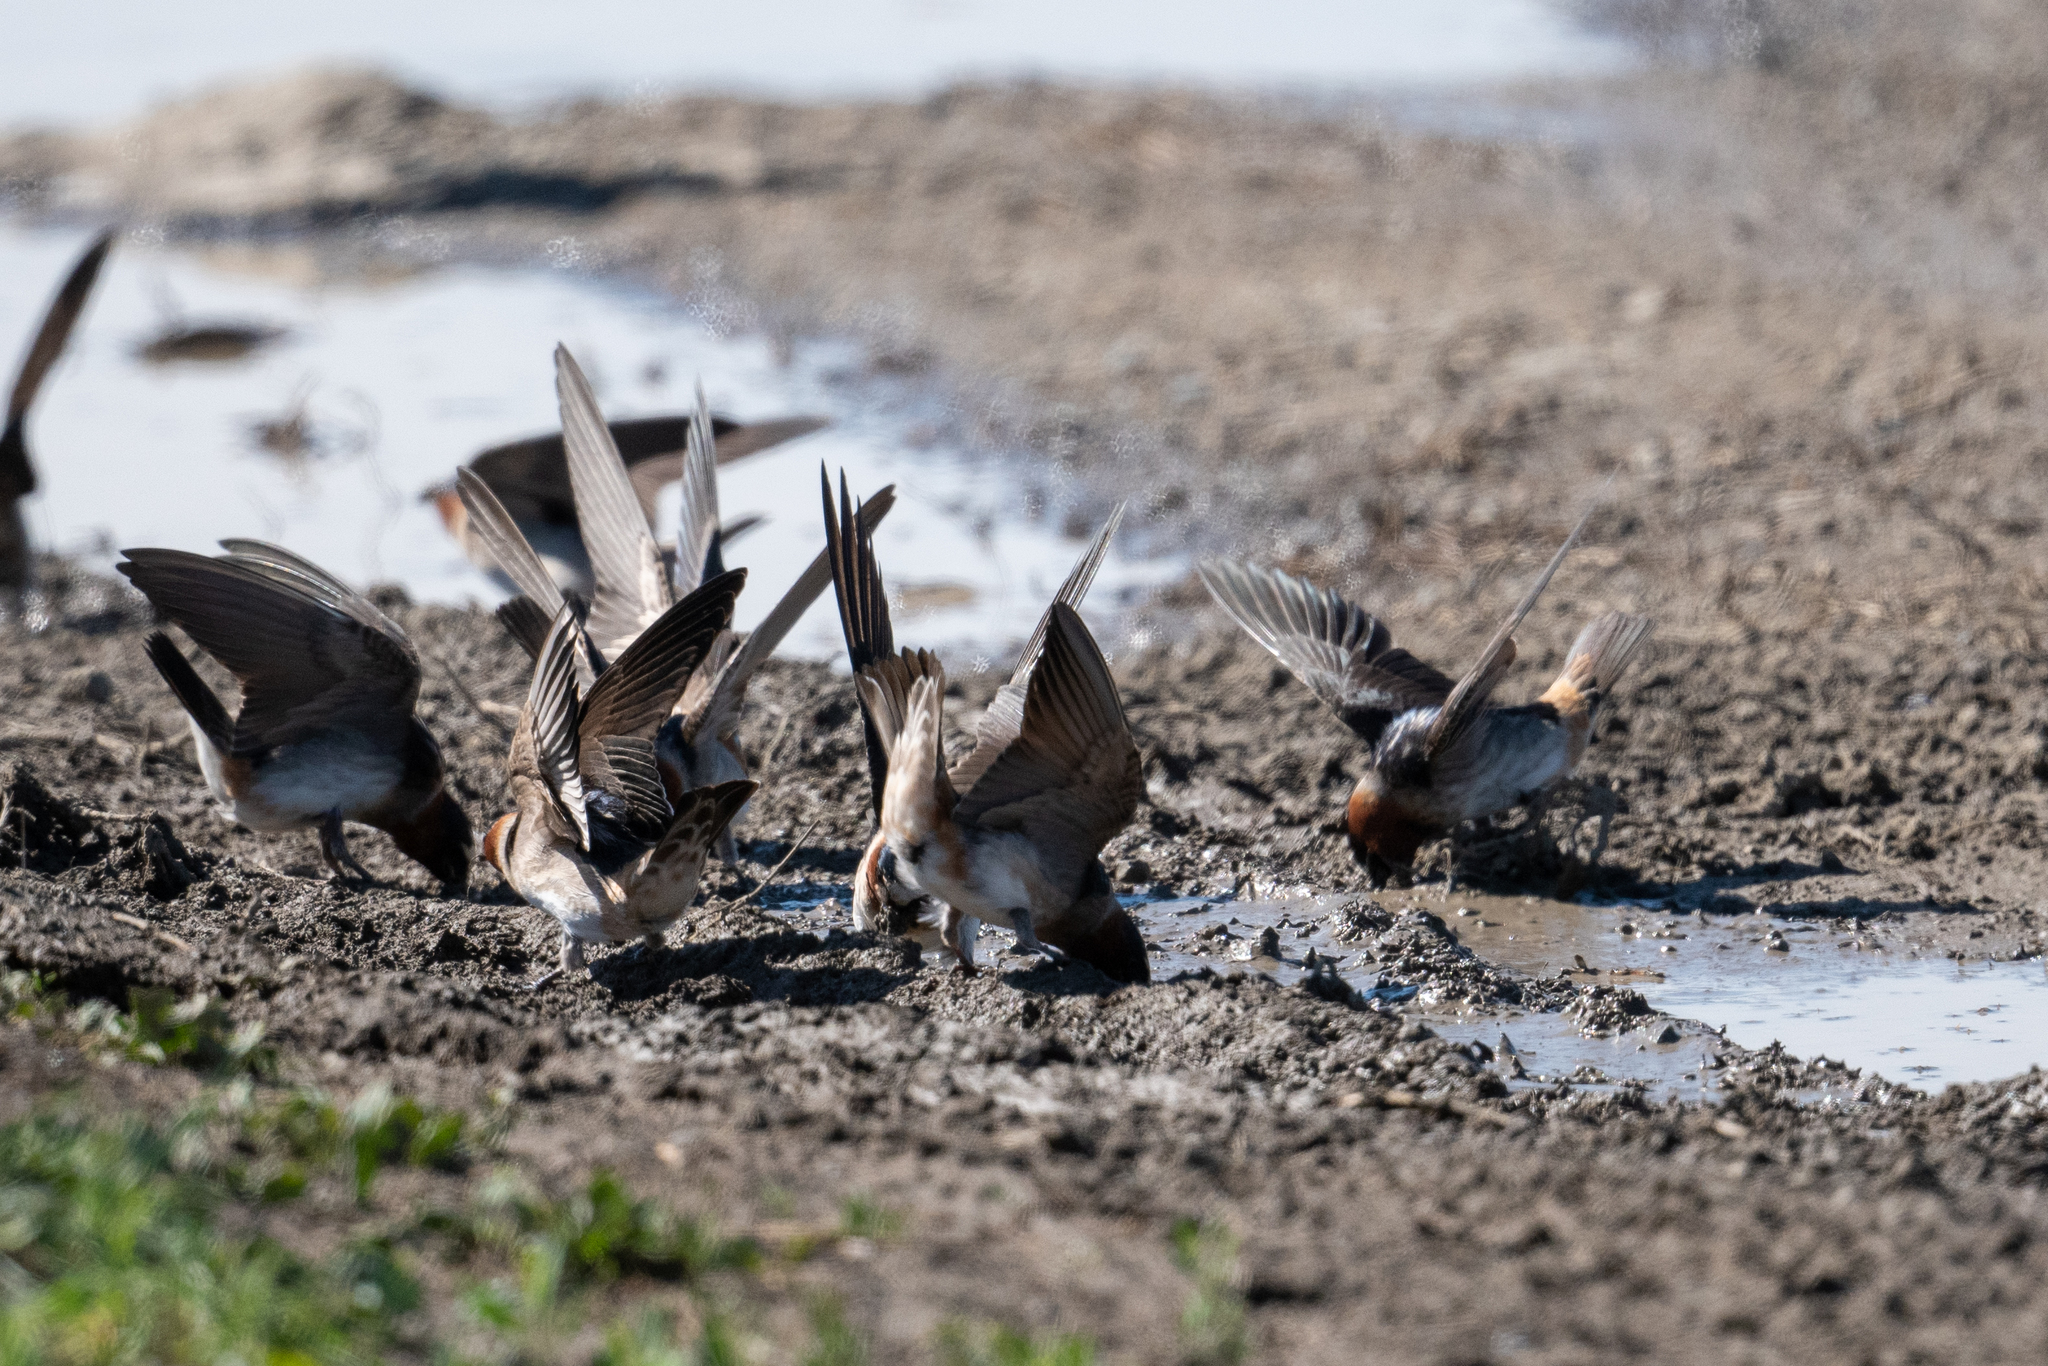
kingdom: Animalia
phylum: Chordata
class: Aves
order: Passeriformes
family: Hirundinidae
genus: Petrochelidon
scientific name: Petrochelidon pyrrhonota
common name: American cliff swallow
